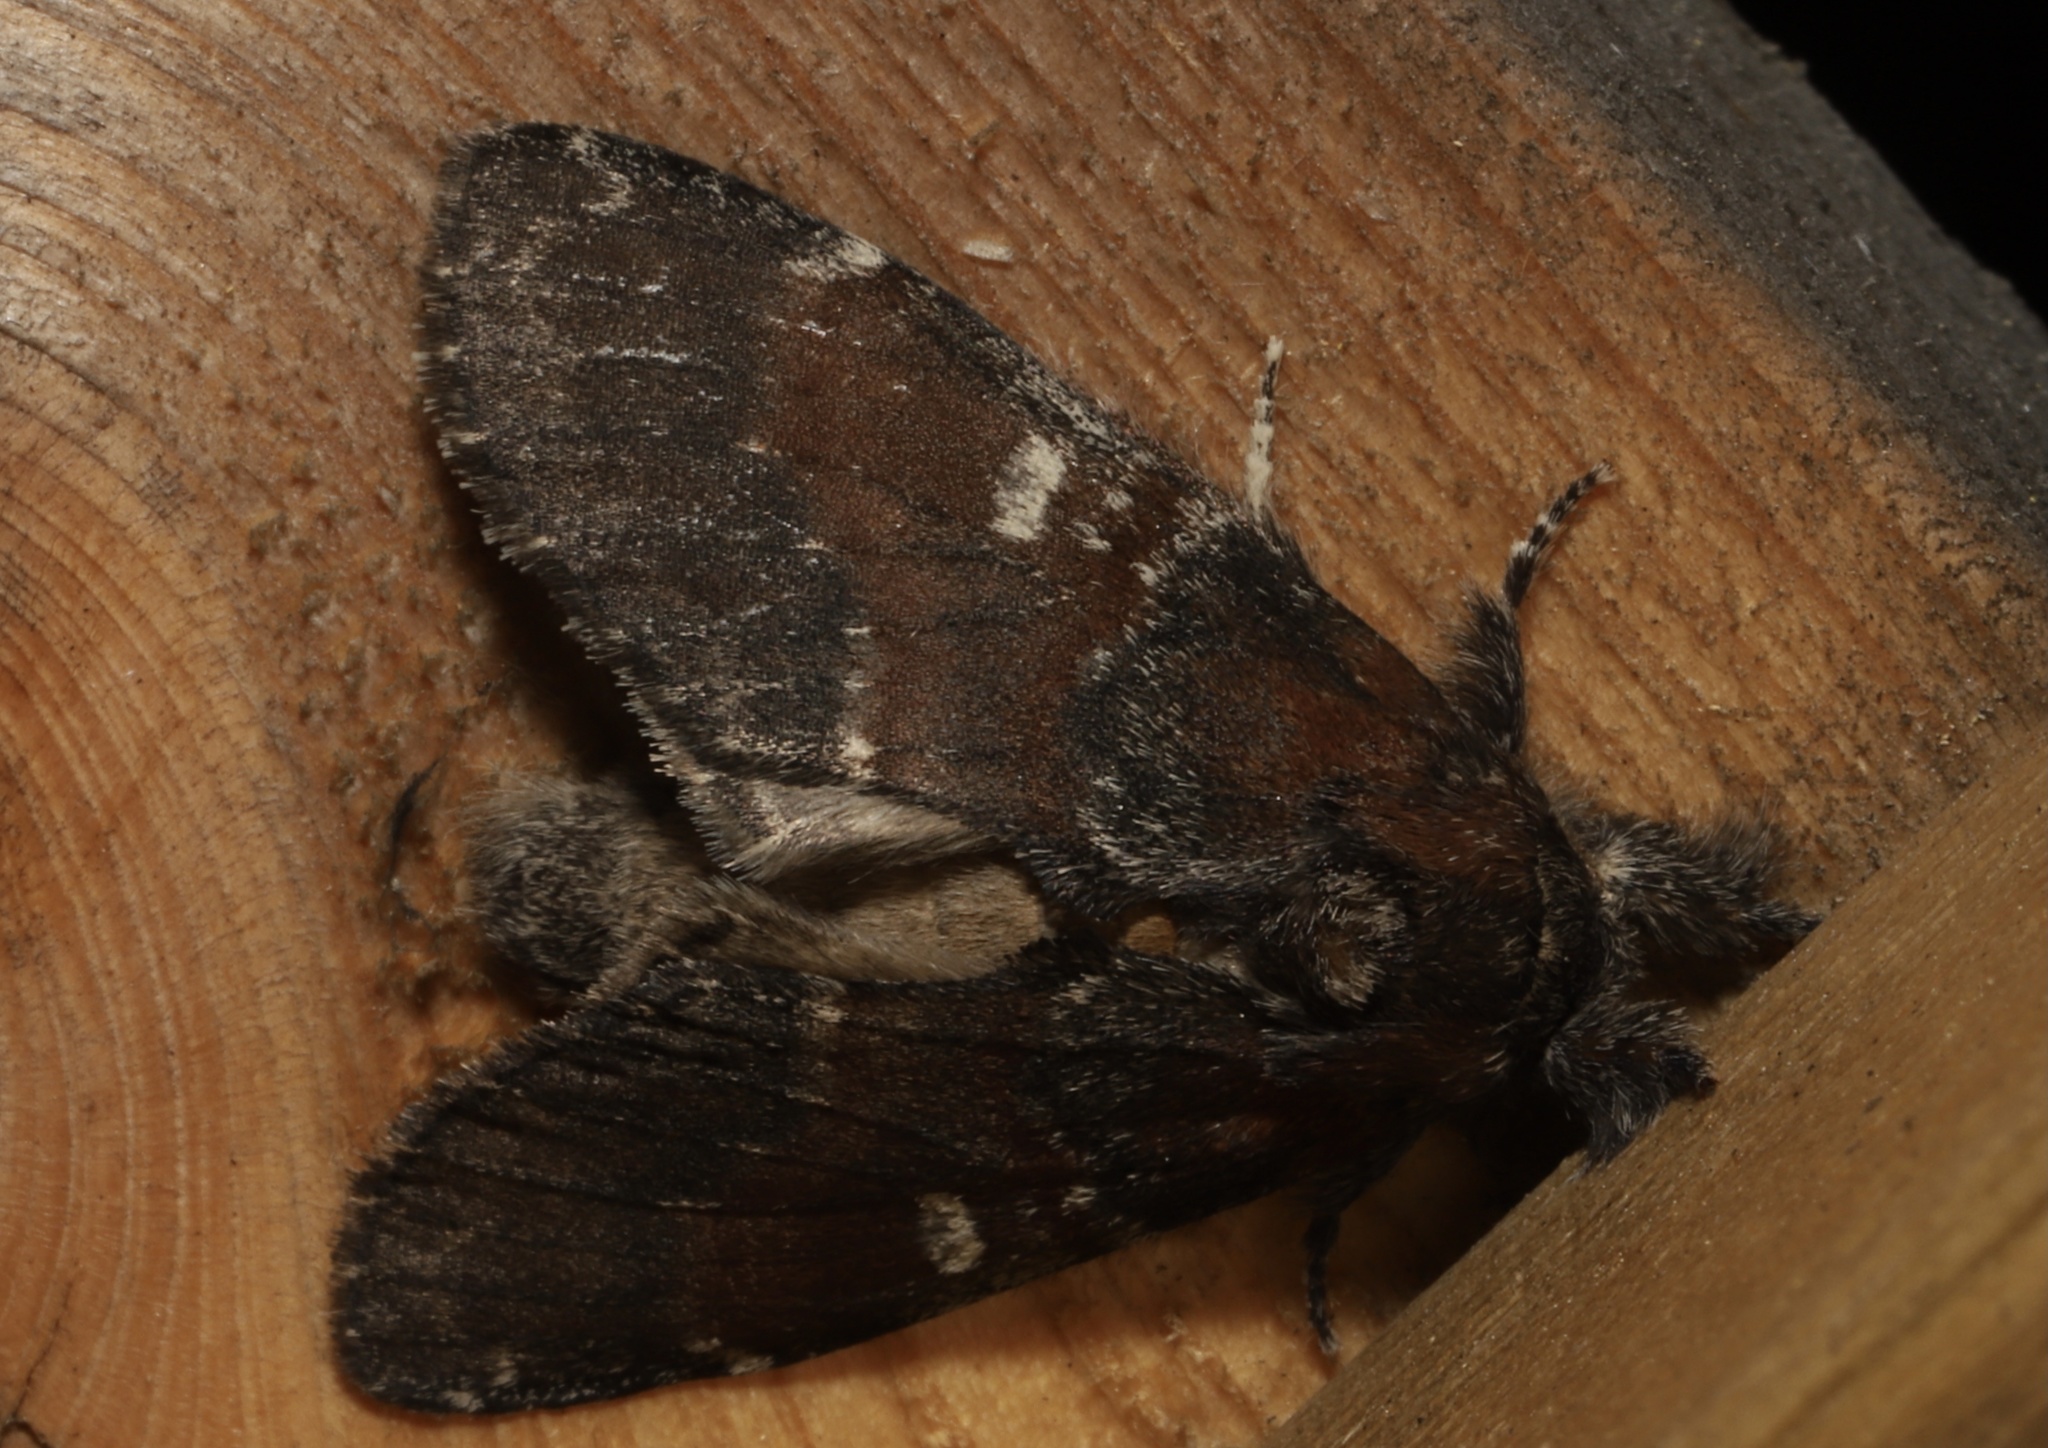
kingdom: Animalia
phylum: Arthropoda
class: Insecta
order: Lepidoptera
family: Notodontidae
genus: Peridea
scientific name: Peridea ferruginea
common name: Chocolate prominent
